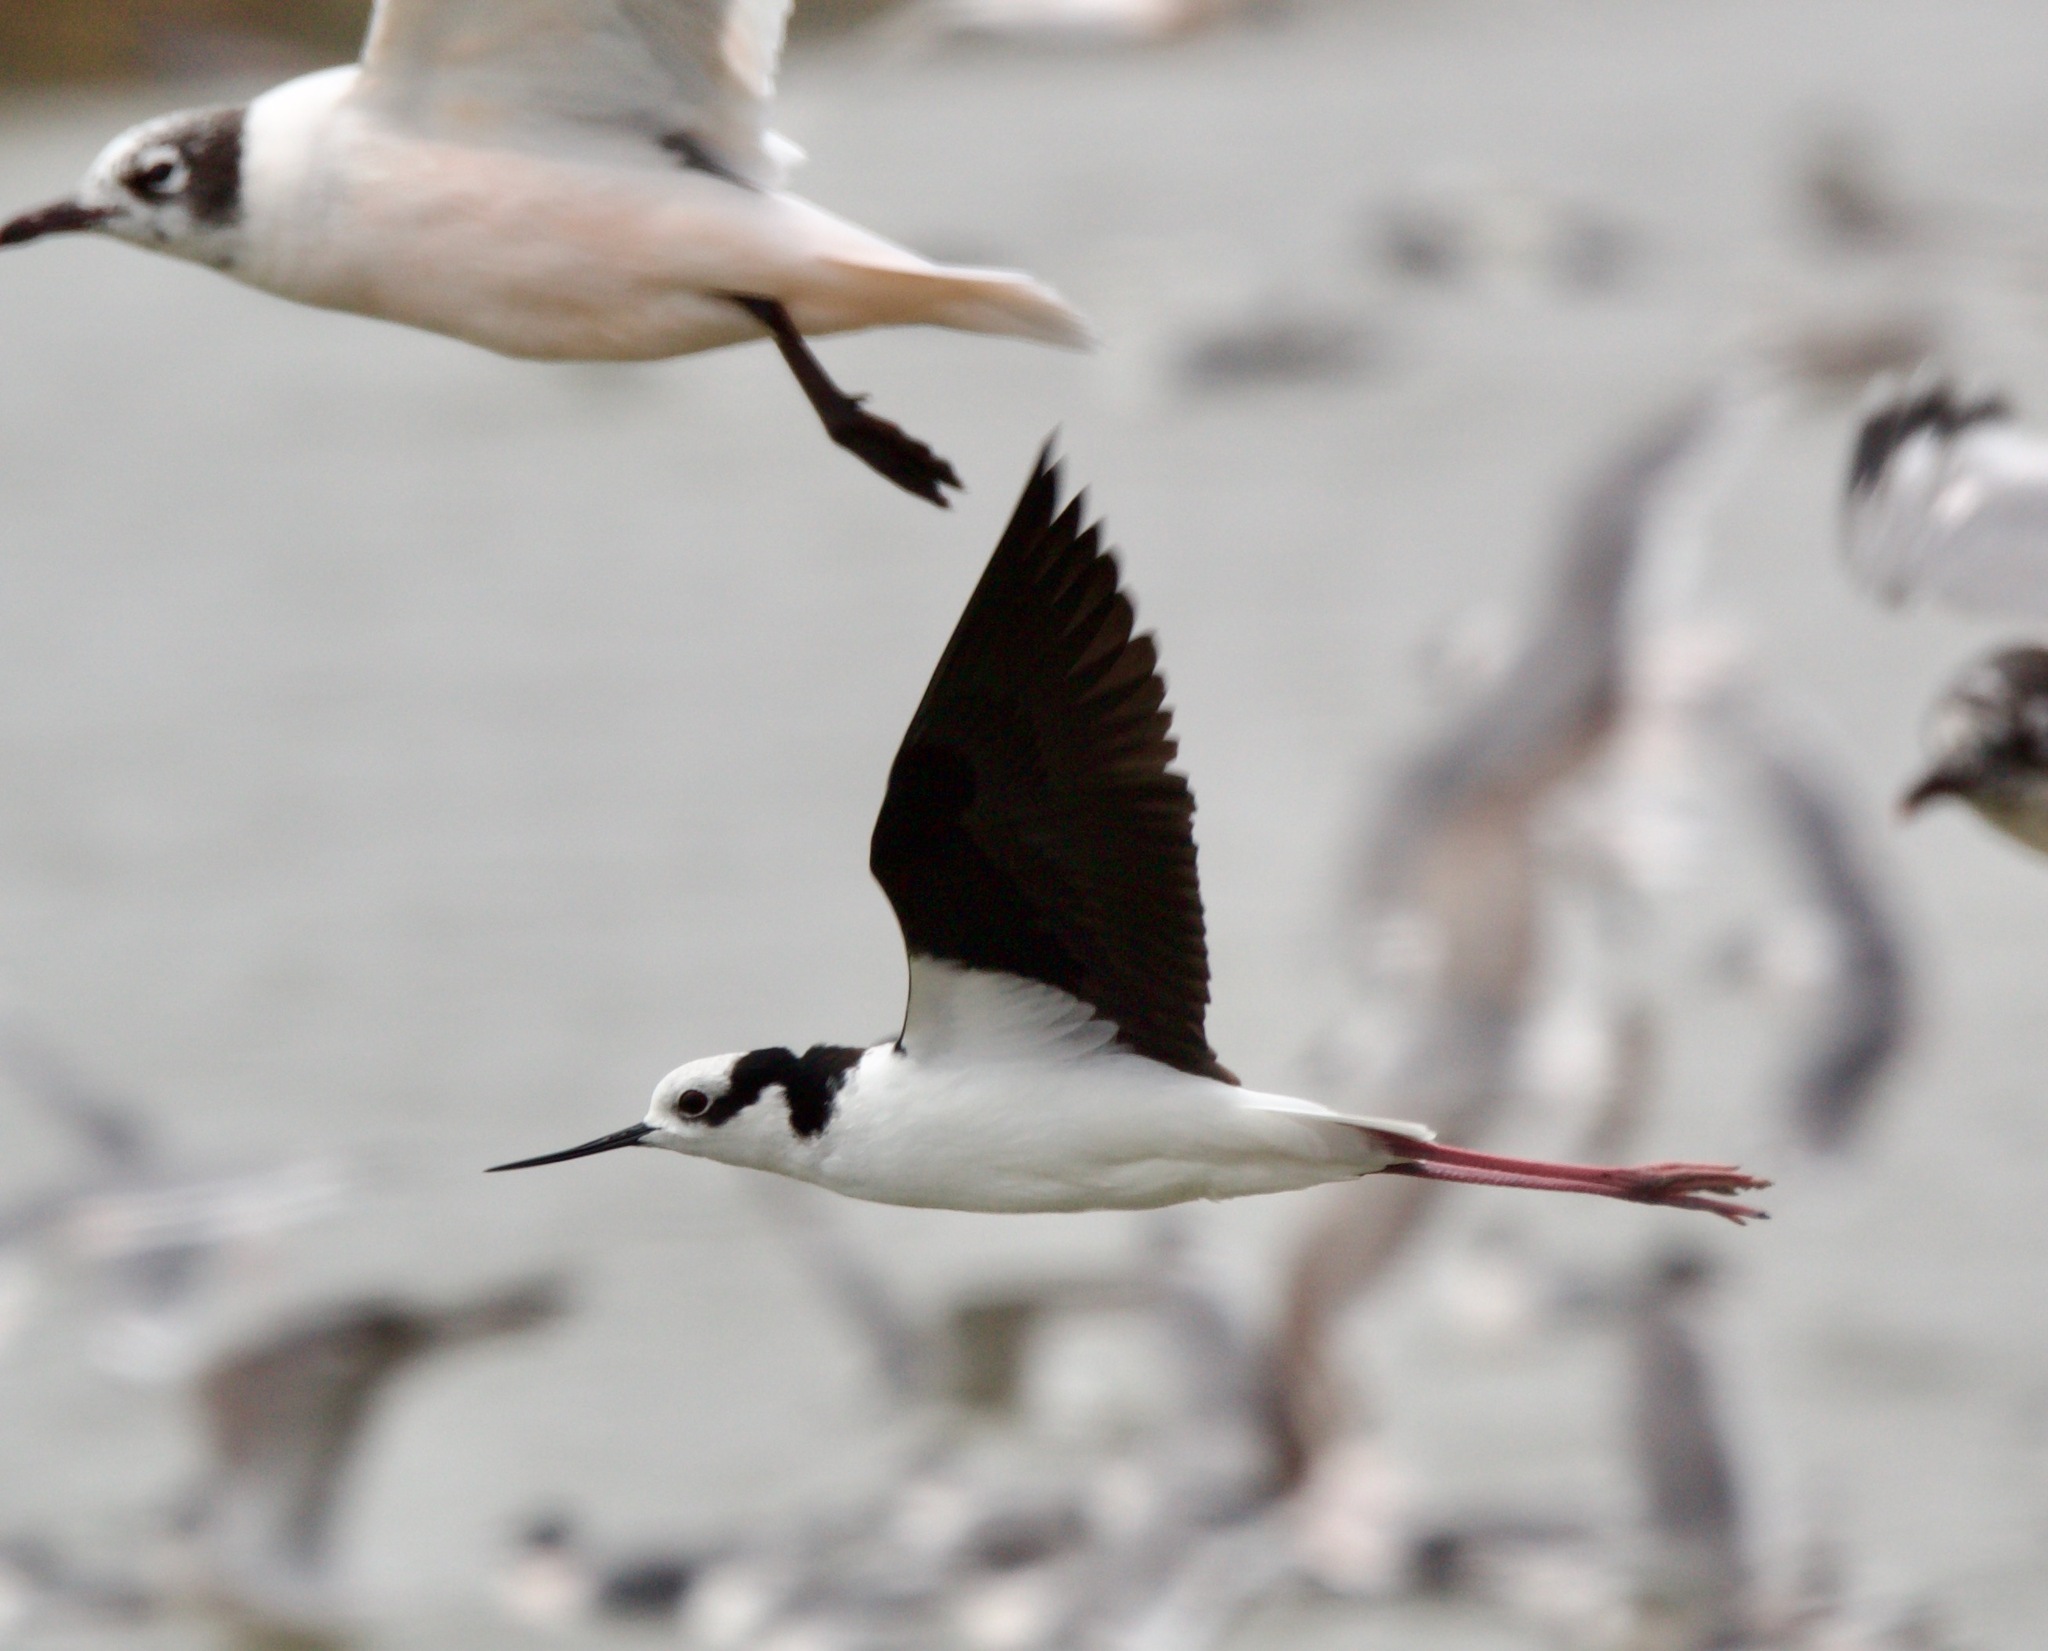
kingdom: Animalia
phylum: Chordata
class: Aves
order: Charadriiformes
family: Recurvirostridae
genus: Himantopus
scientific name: Himantopus mexicanus
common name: Black-necked stilt
